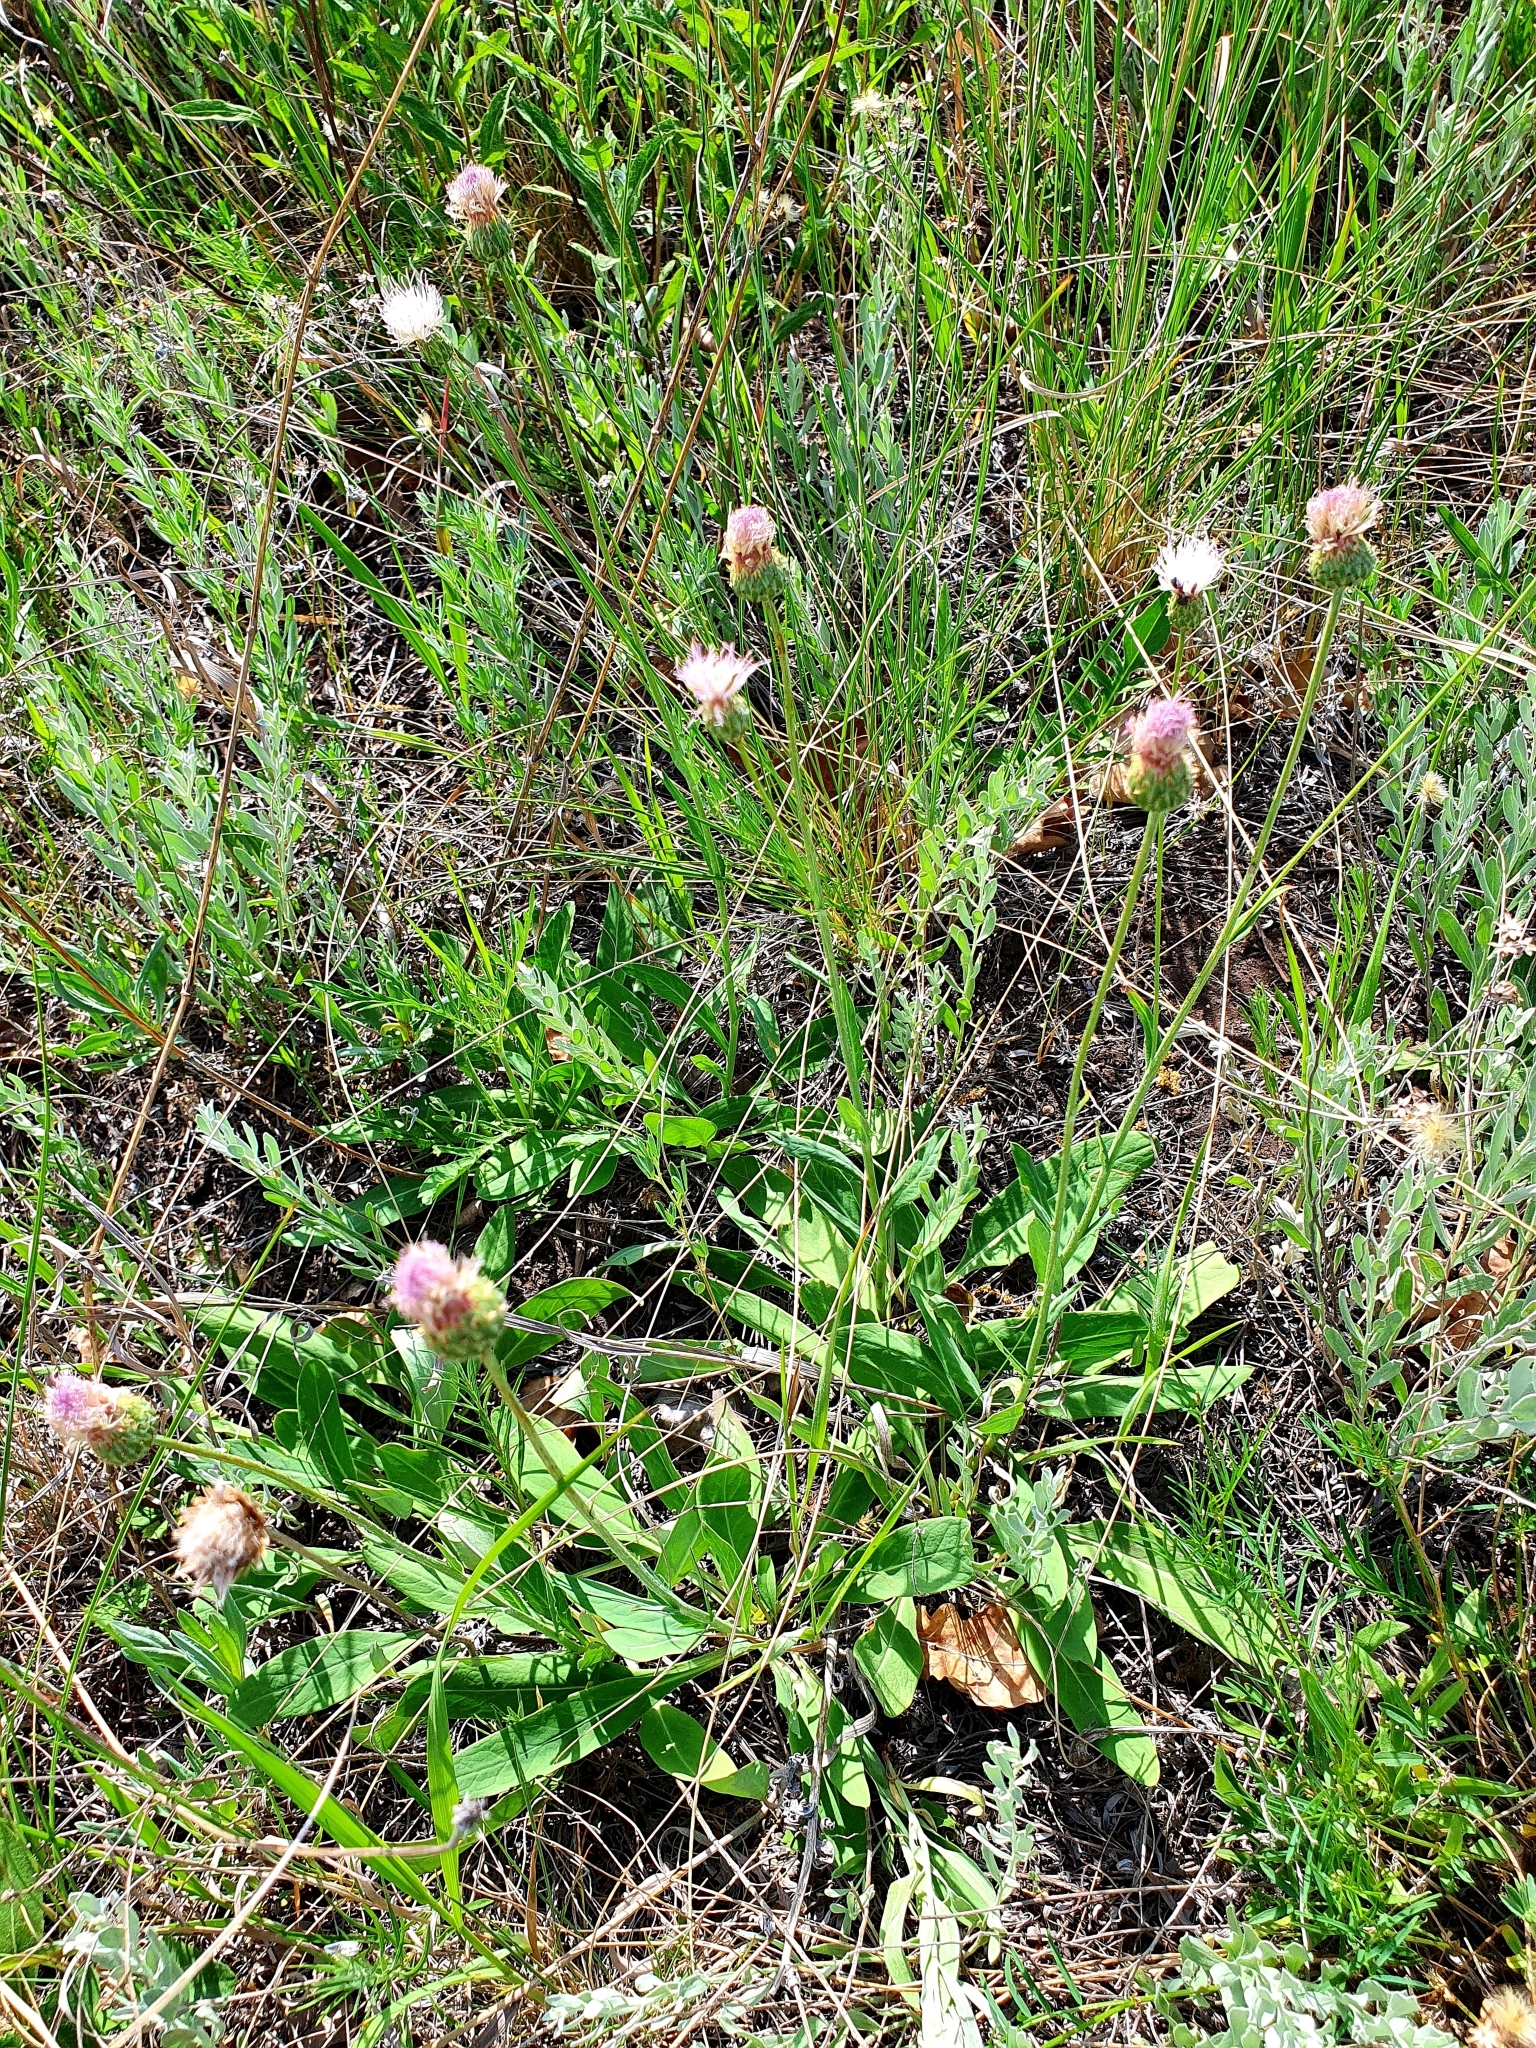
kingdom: Plantae
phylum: Tracheophyta
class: Magnoliopsida
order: Asterales
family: Asteraceae
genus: Klasea
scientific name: Klasea cardunculus
